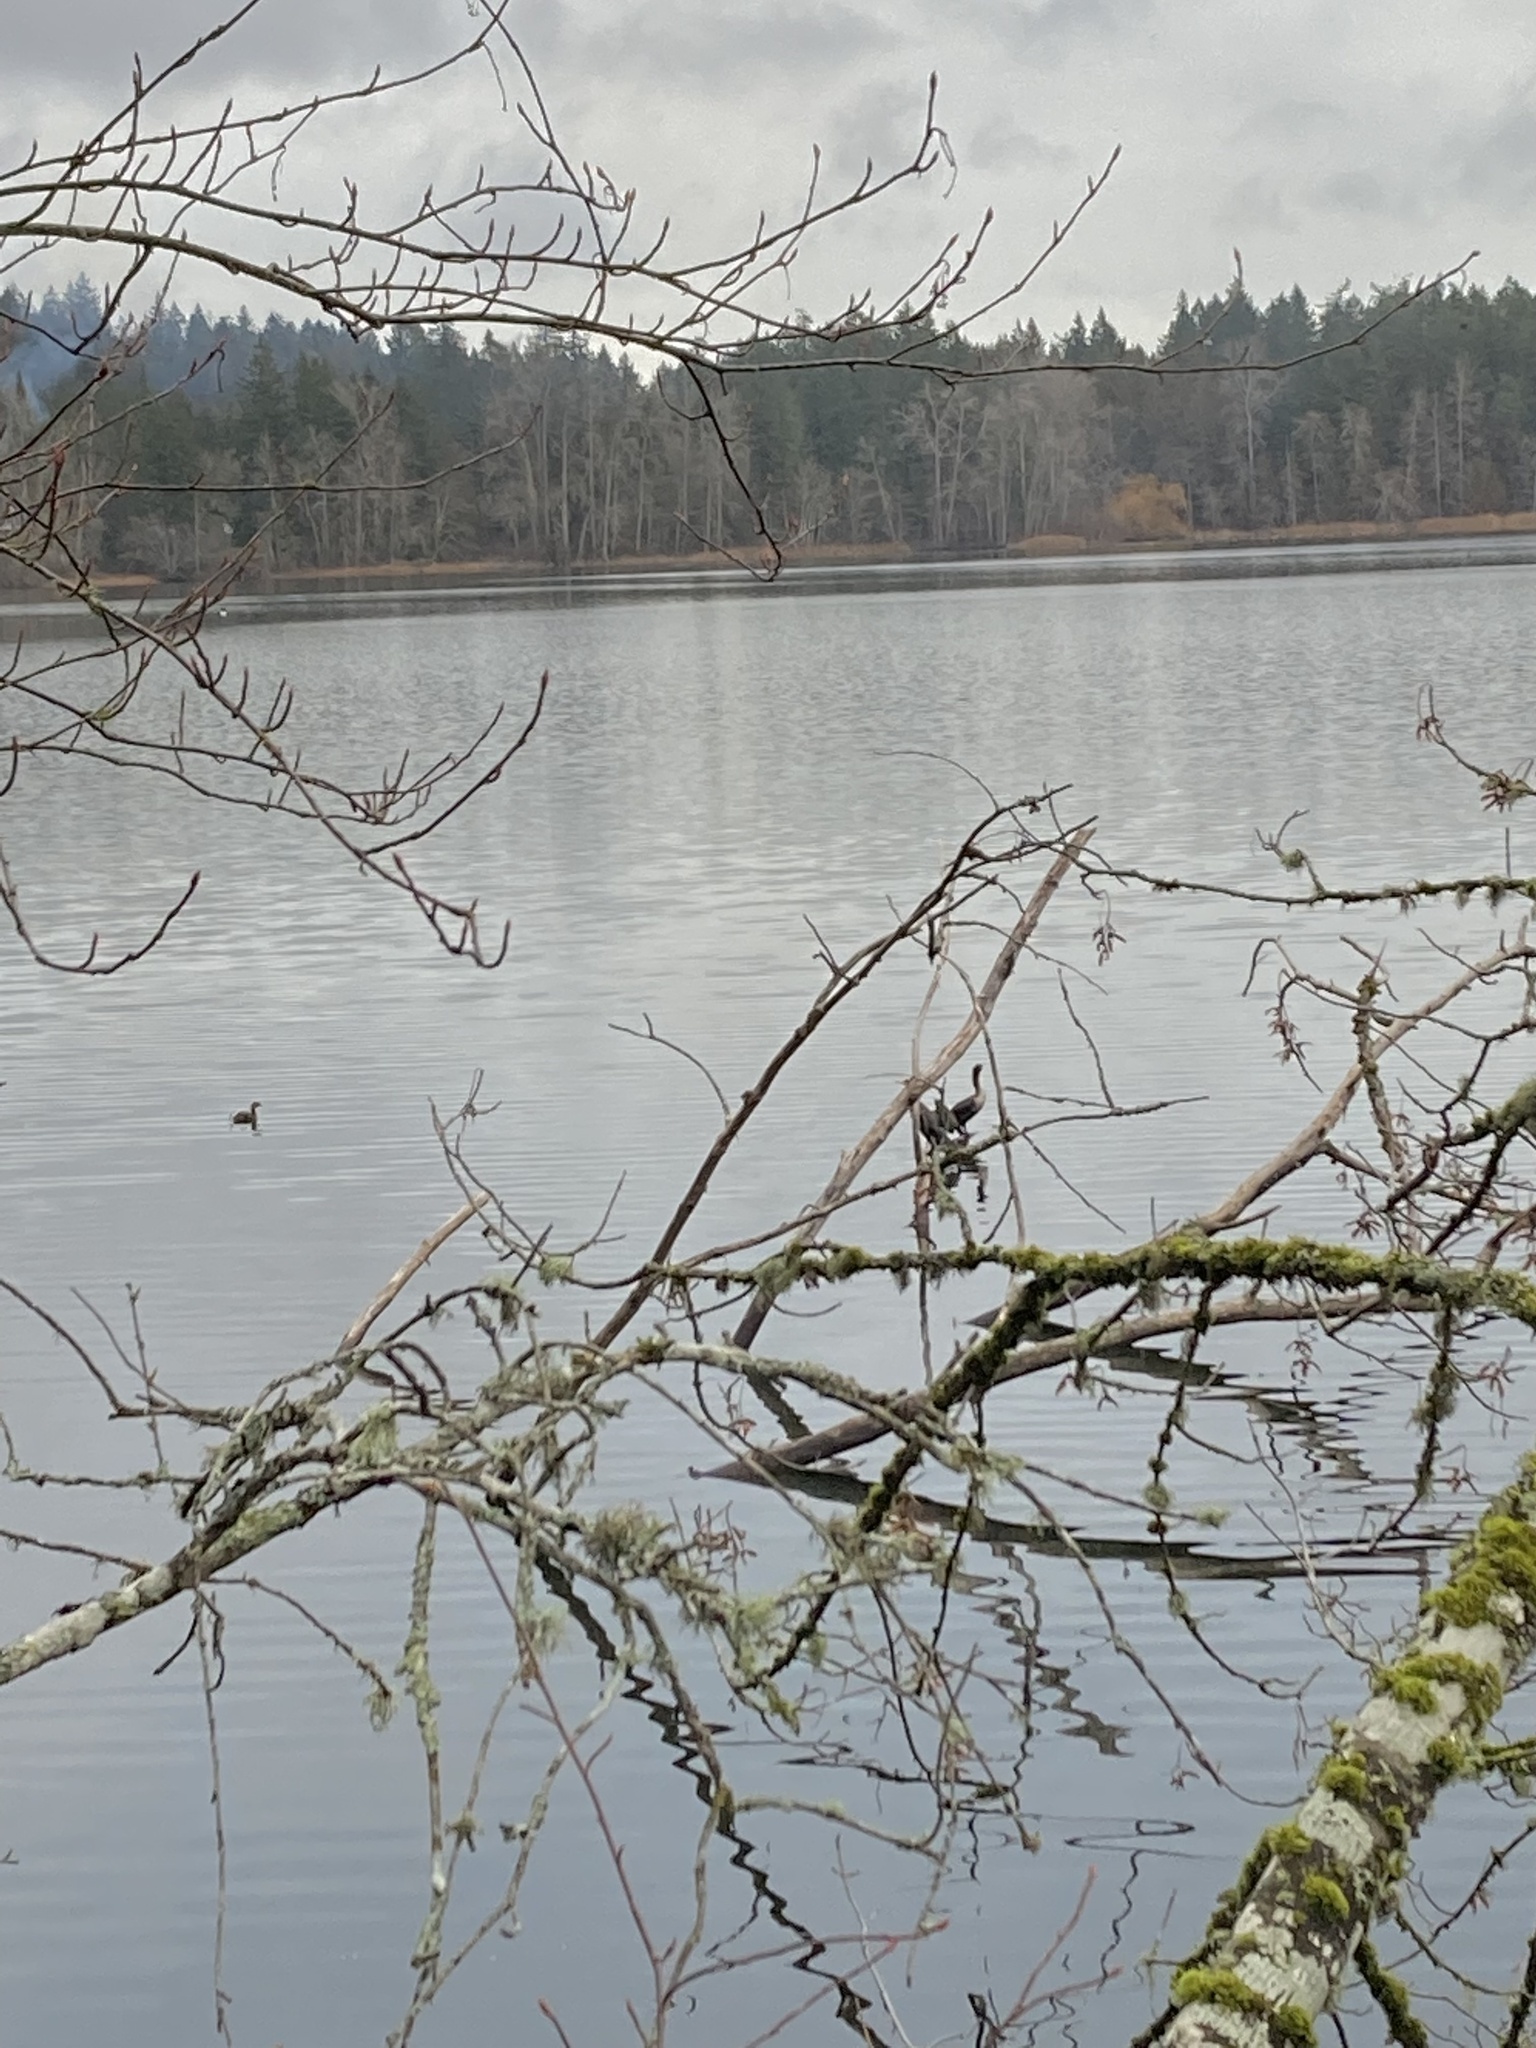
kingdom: Animalia
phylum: Chordata
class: Aves
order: Podicipediformes
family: Podicipedidae
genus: Podilymbus
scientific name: Podilymbus podiceps
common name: Pied-billed grebe
